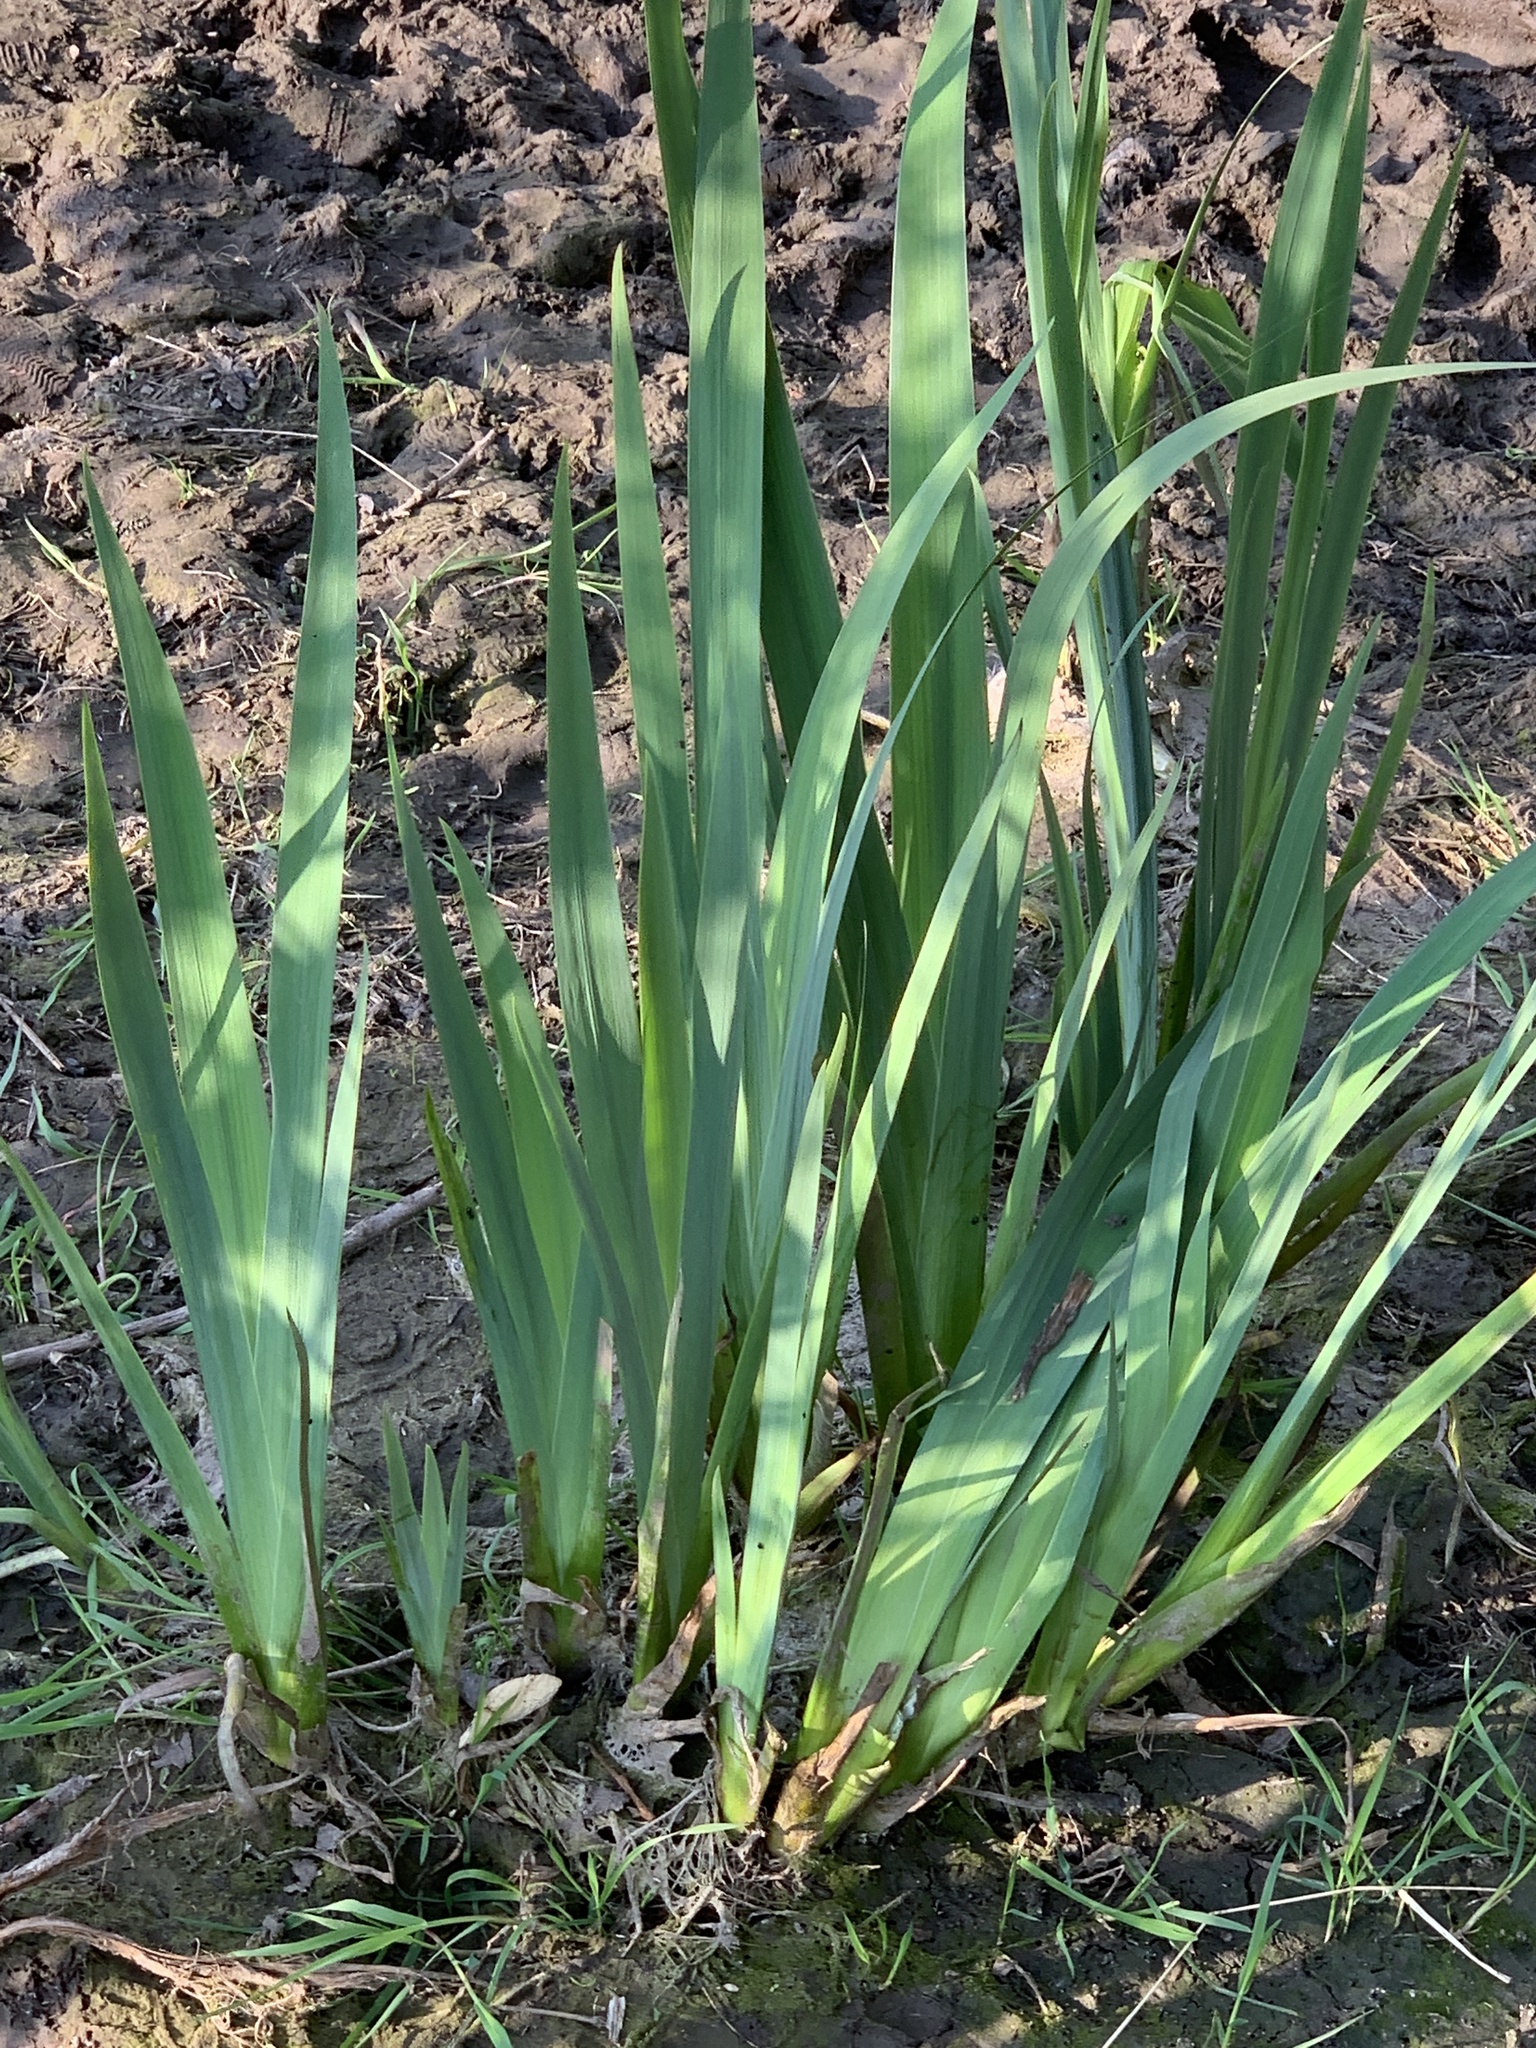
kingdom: Plantae
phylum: Tracheophyta
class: Liliopsida
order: Asparagales
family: Iridaceae
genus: Iris
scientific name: Iris pseudacorus
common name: Yellow flag
